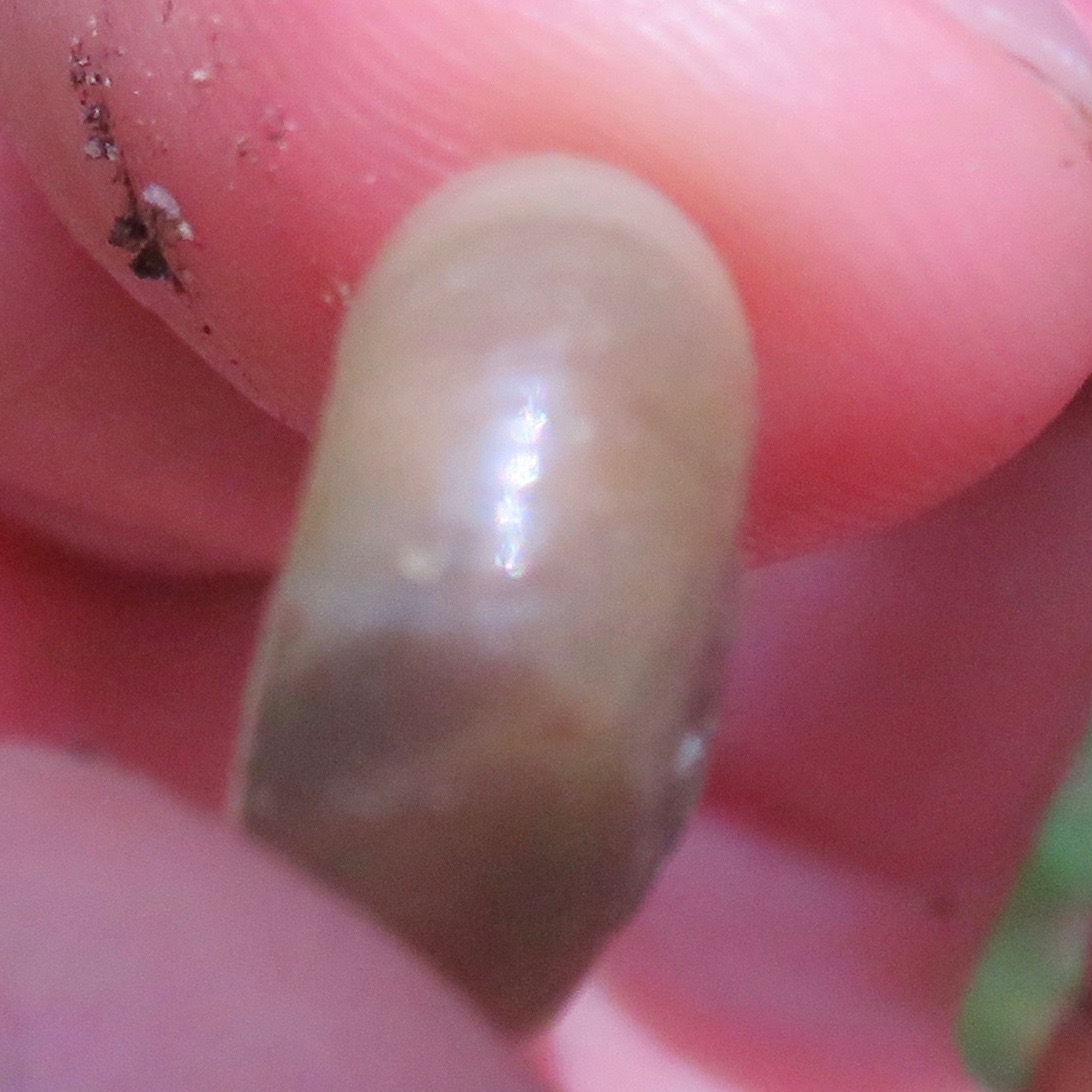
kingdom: Animalia
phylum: Mollusca
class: Gastropoda
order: Stylommatophora
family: Haplotrematidae
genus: Haplotrema
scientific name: Haplotrema minimum
